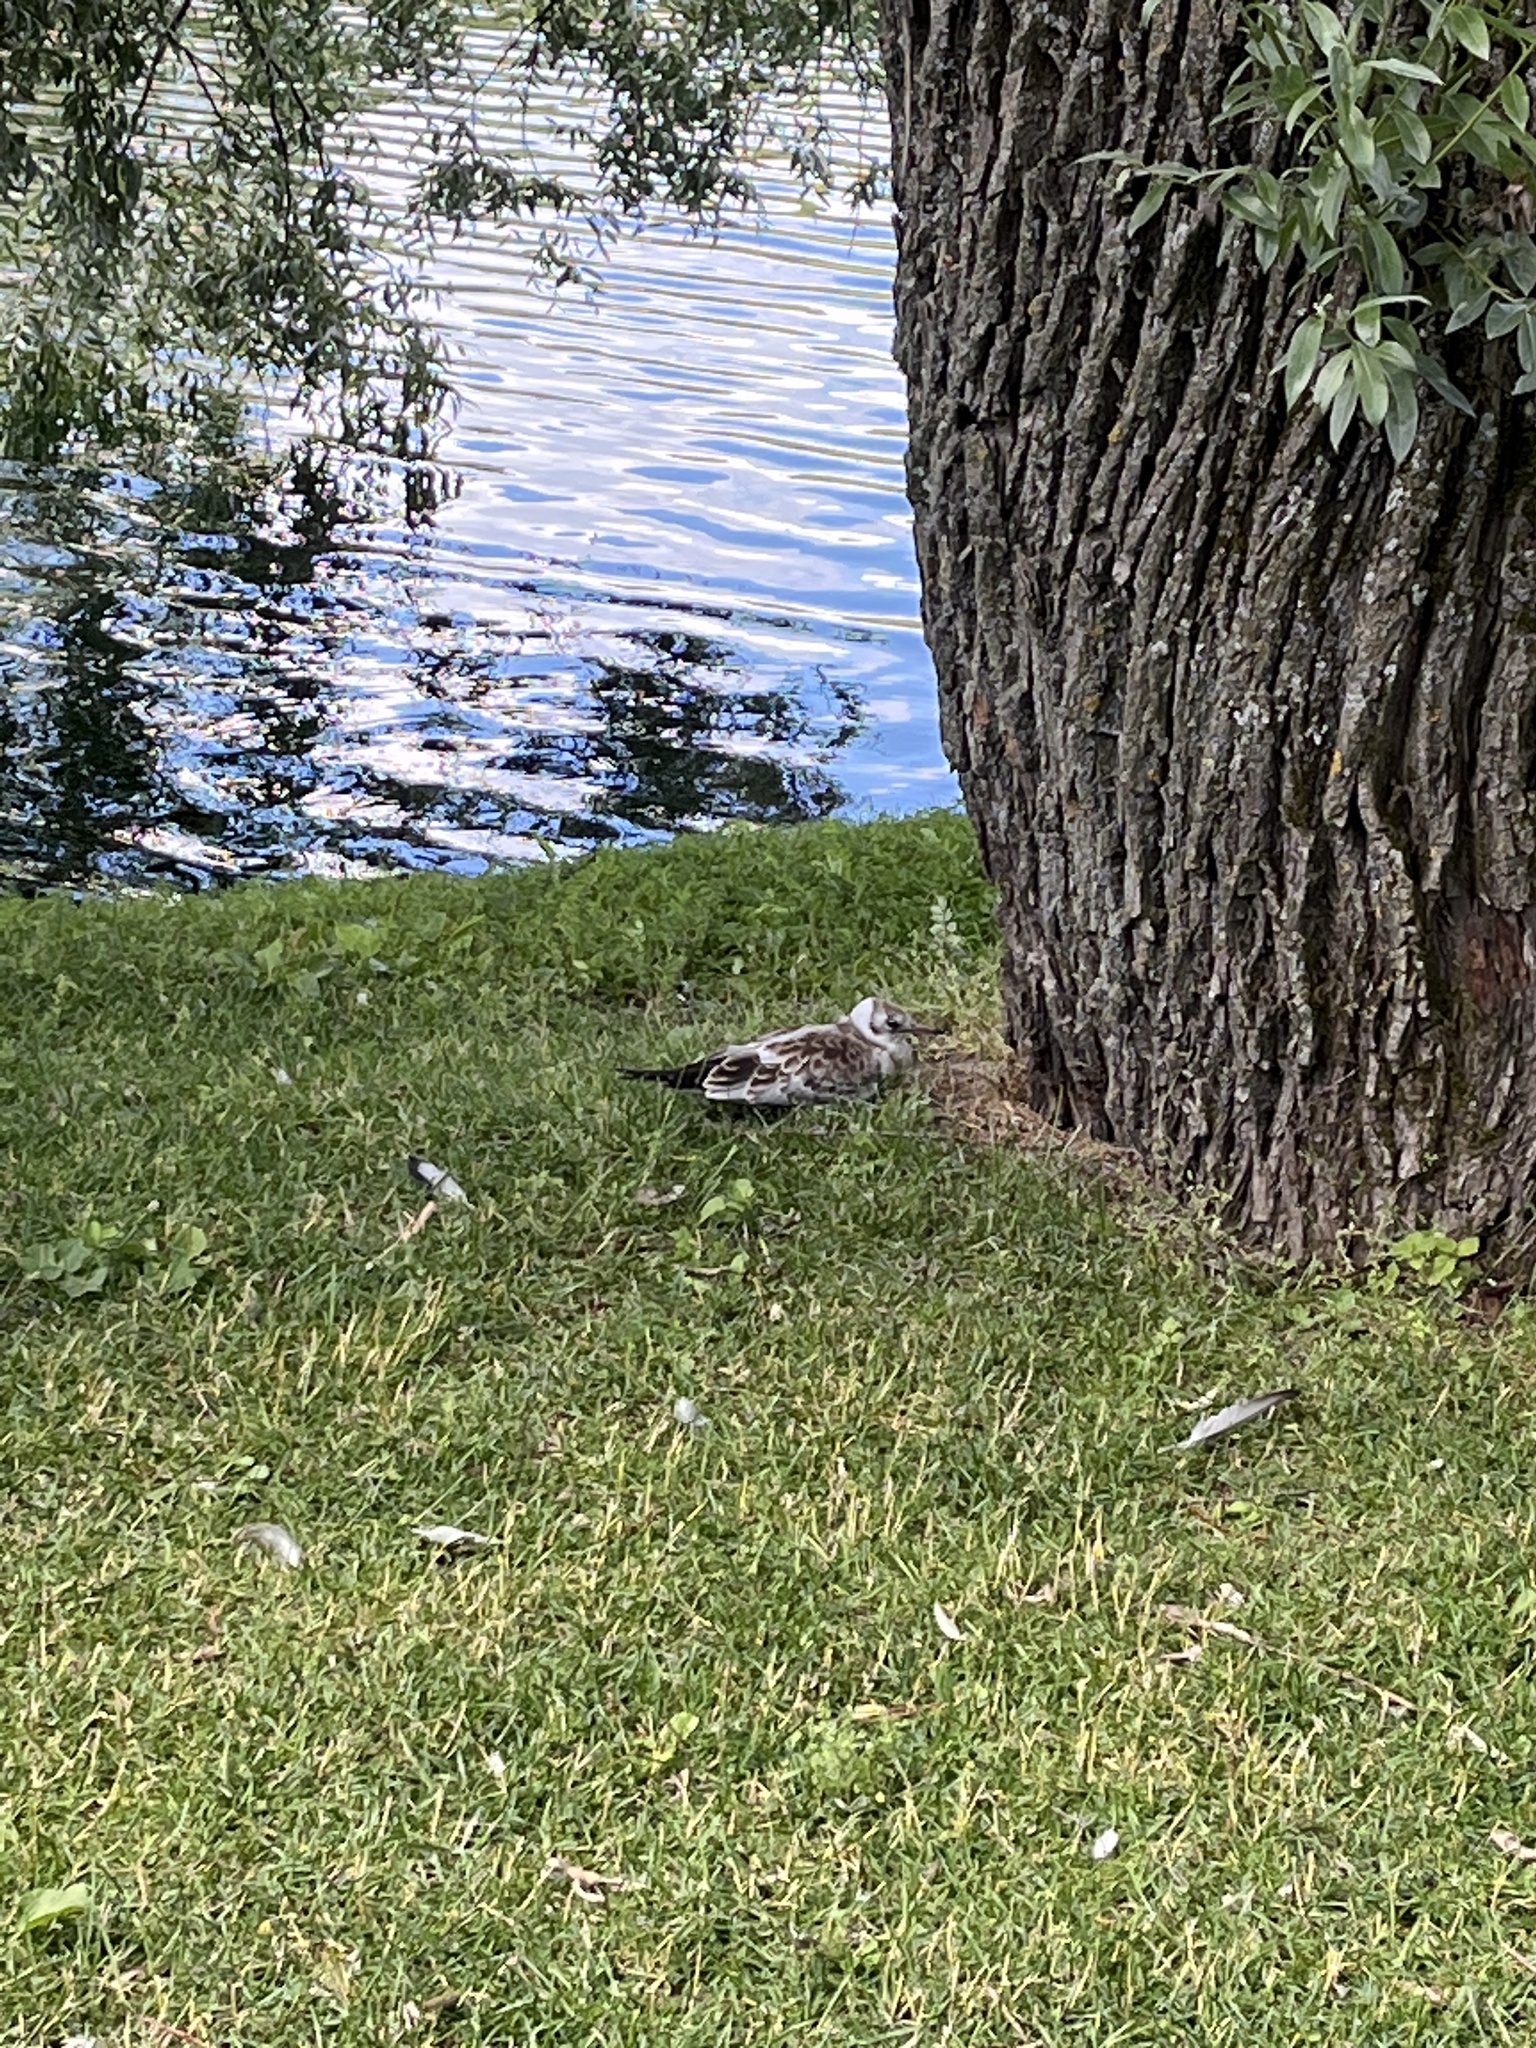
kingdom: Animalia
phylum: Chordata
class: Aves
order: Charadriiformes
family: Laridae
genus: Chroicocephalus
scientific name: Chroicocephalus ridibundus
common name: Black-headed gull
